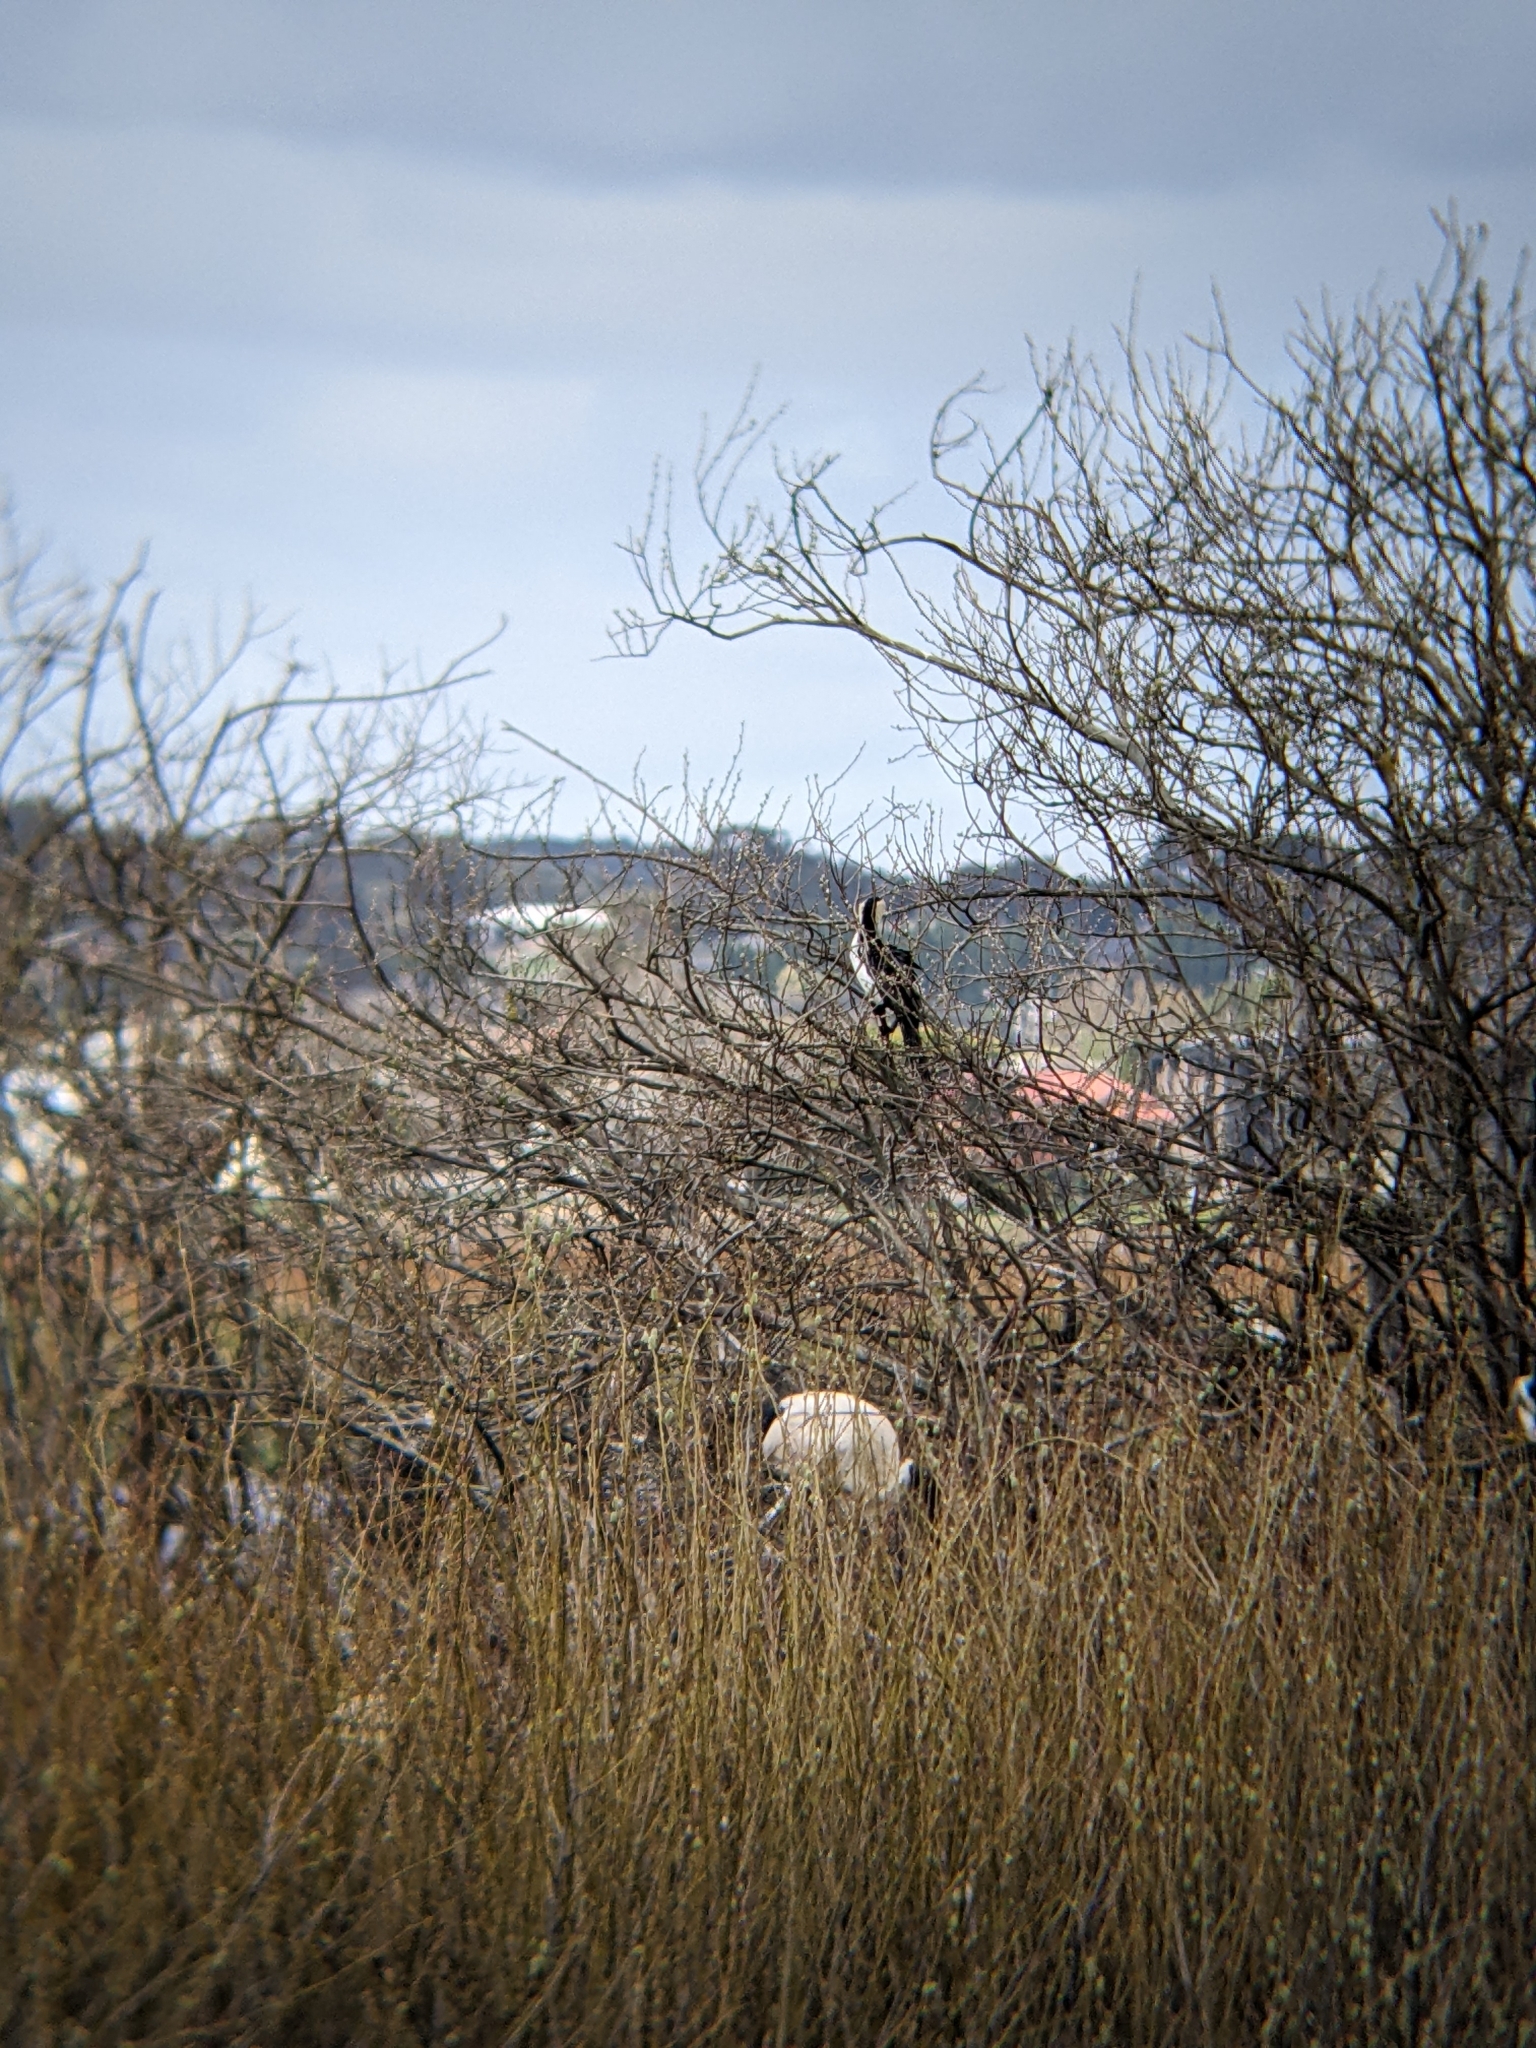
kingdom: Animalia
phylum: Chordata
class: Aves
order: Suliformes
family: Phalacrocoracidae
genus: Microcarbo
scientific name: Microcarbo melanoleucos
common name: Little pied cormorant
